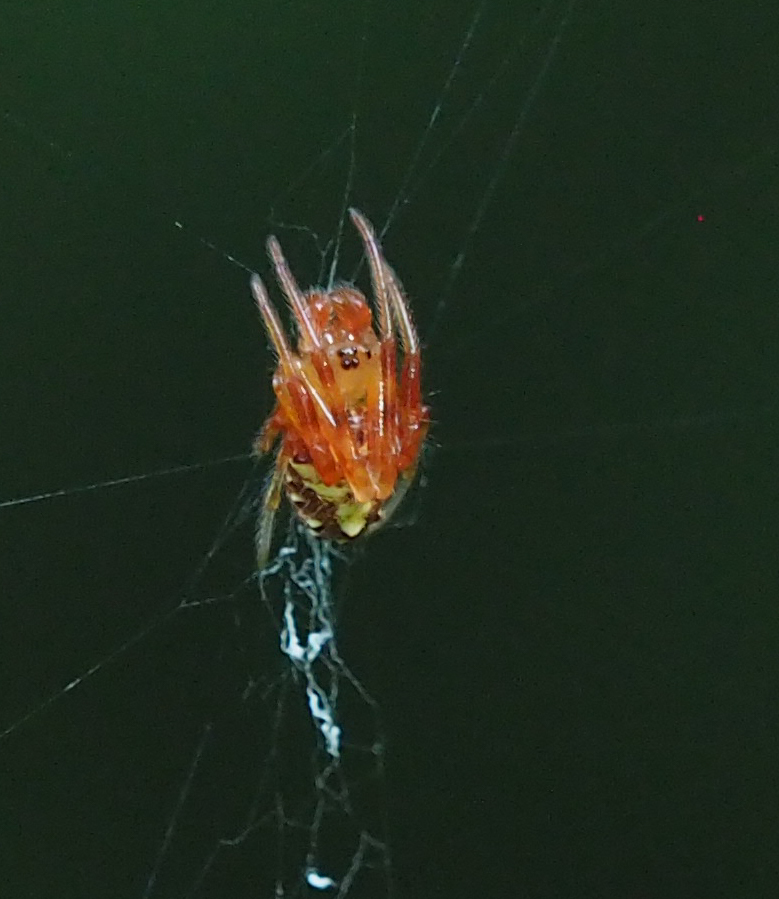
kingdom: Animalia
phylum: Arthropoda
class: Arachnida
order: Araneae
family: Araneidae
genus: Verrucosa
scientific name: Verrucosa arenata
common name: Orb weavers
